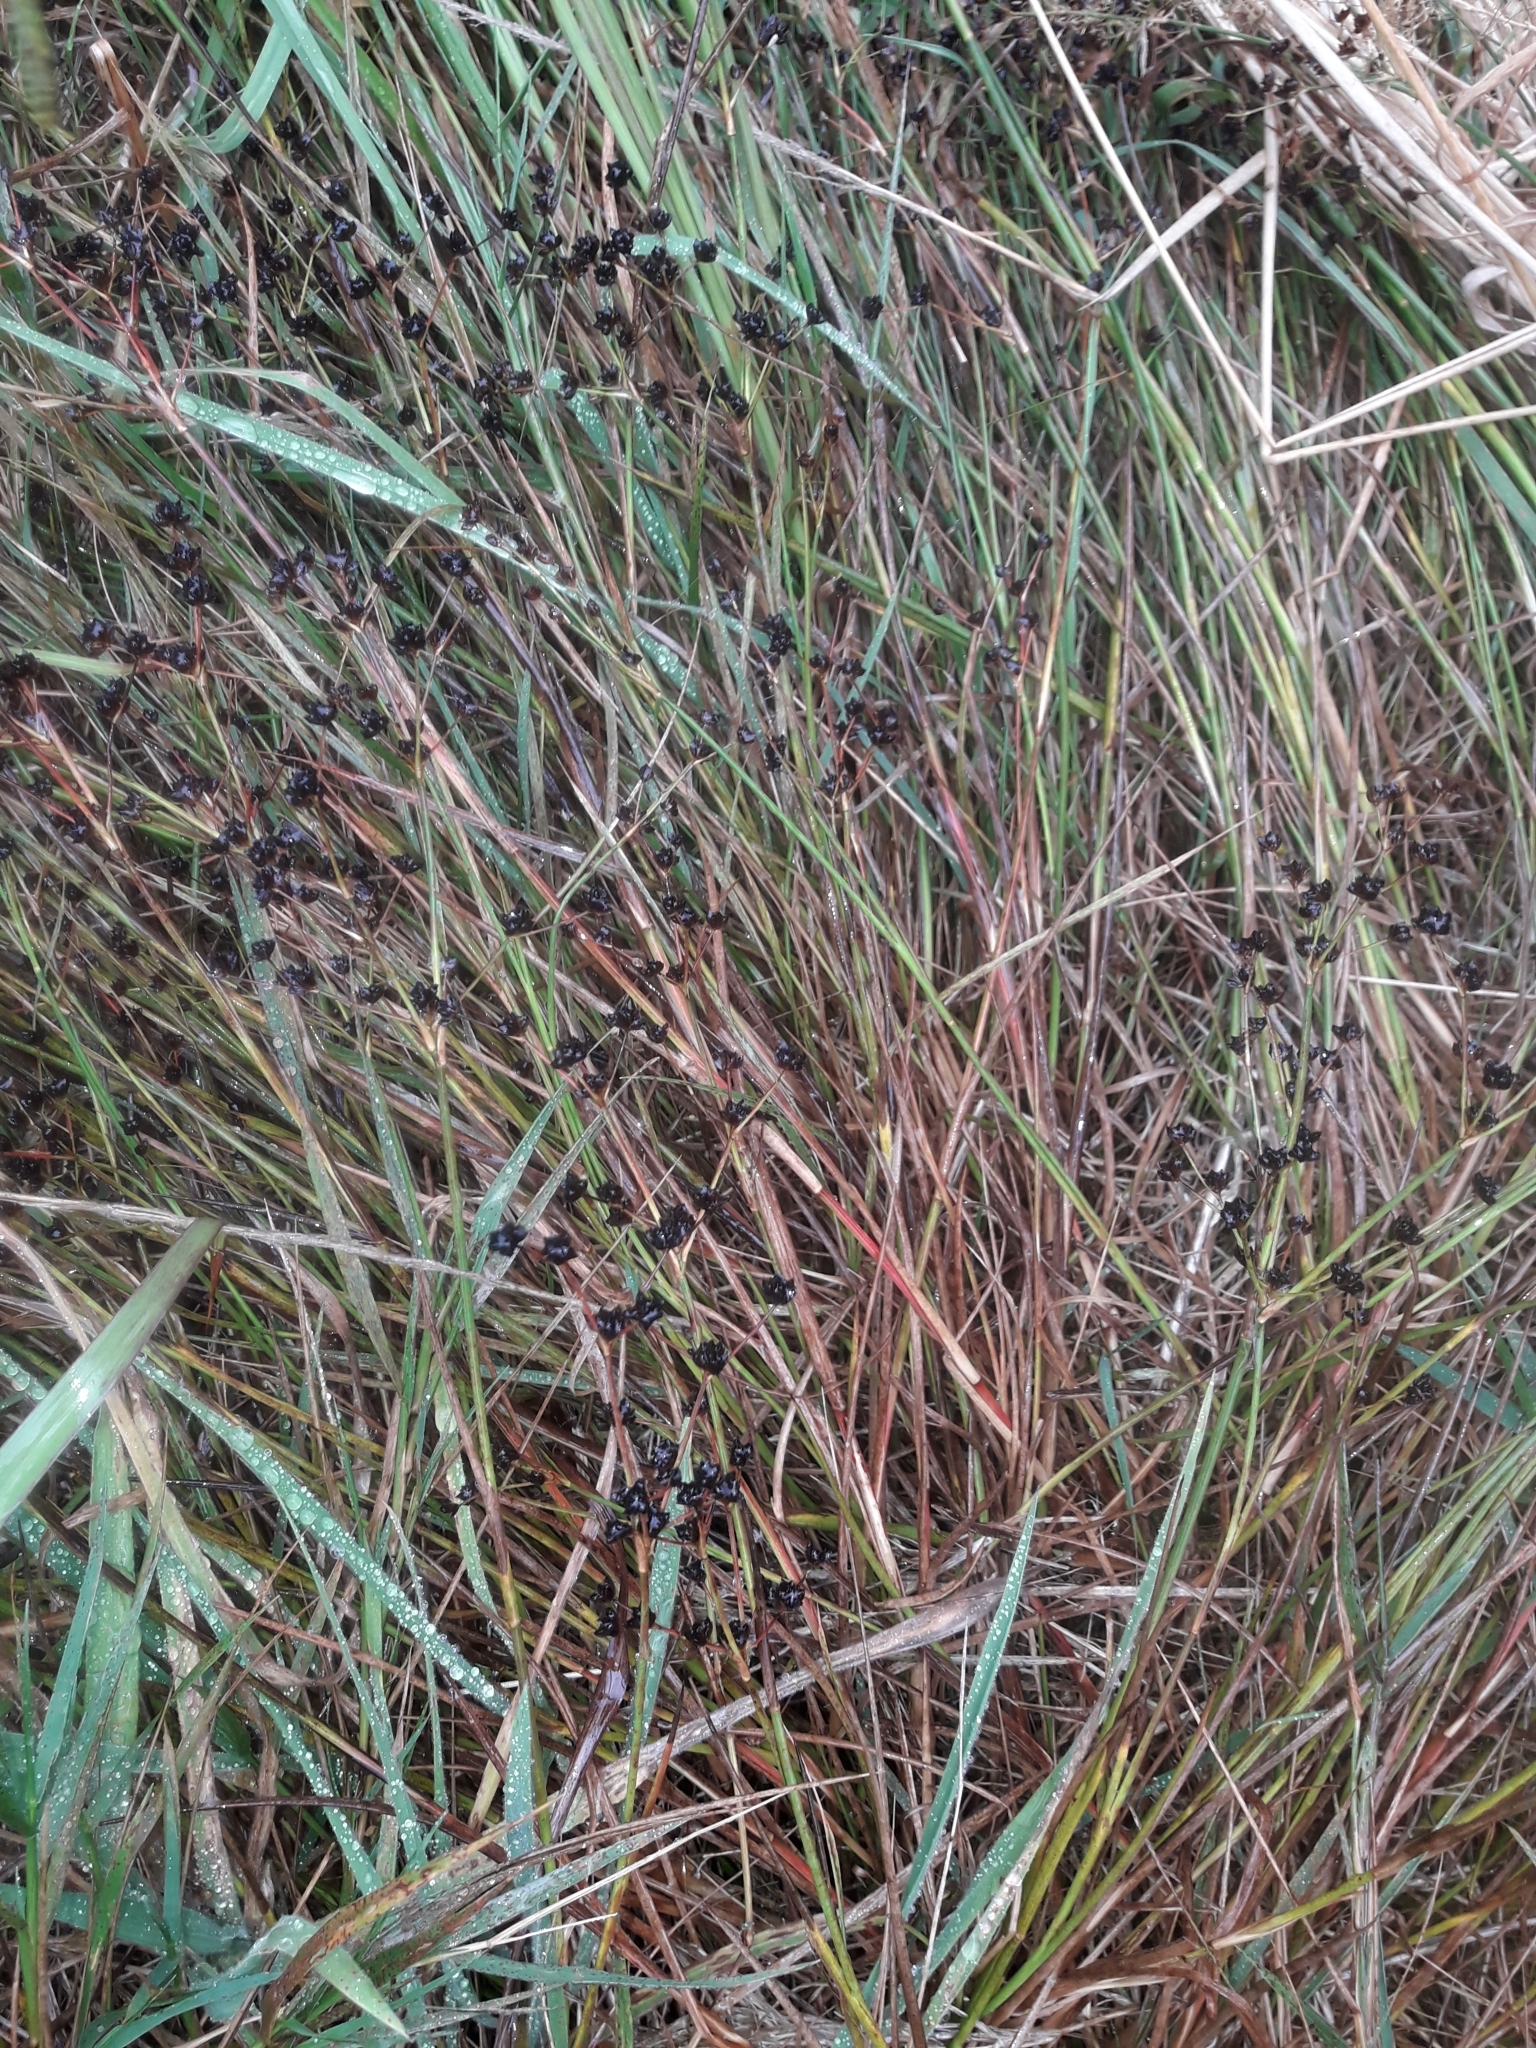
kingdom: Plantae
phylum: Tracheophyta
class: Liliopsida
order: Poales
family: Juncaceae
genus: Juncus
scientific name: Juncus articulatus
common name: Jointed rush
